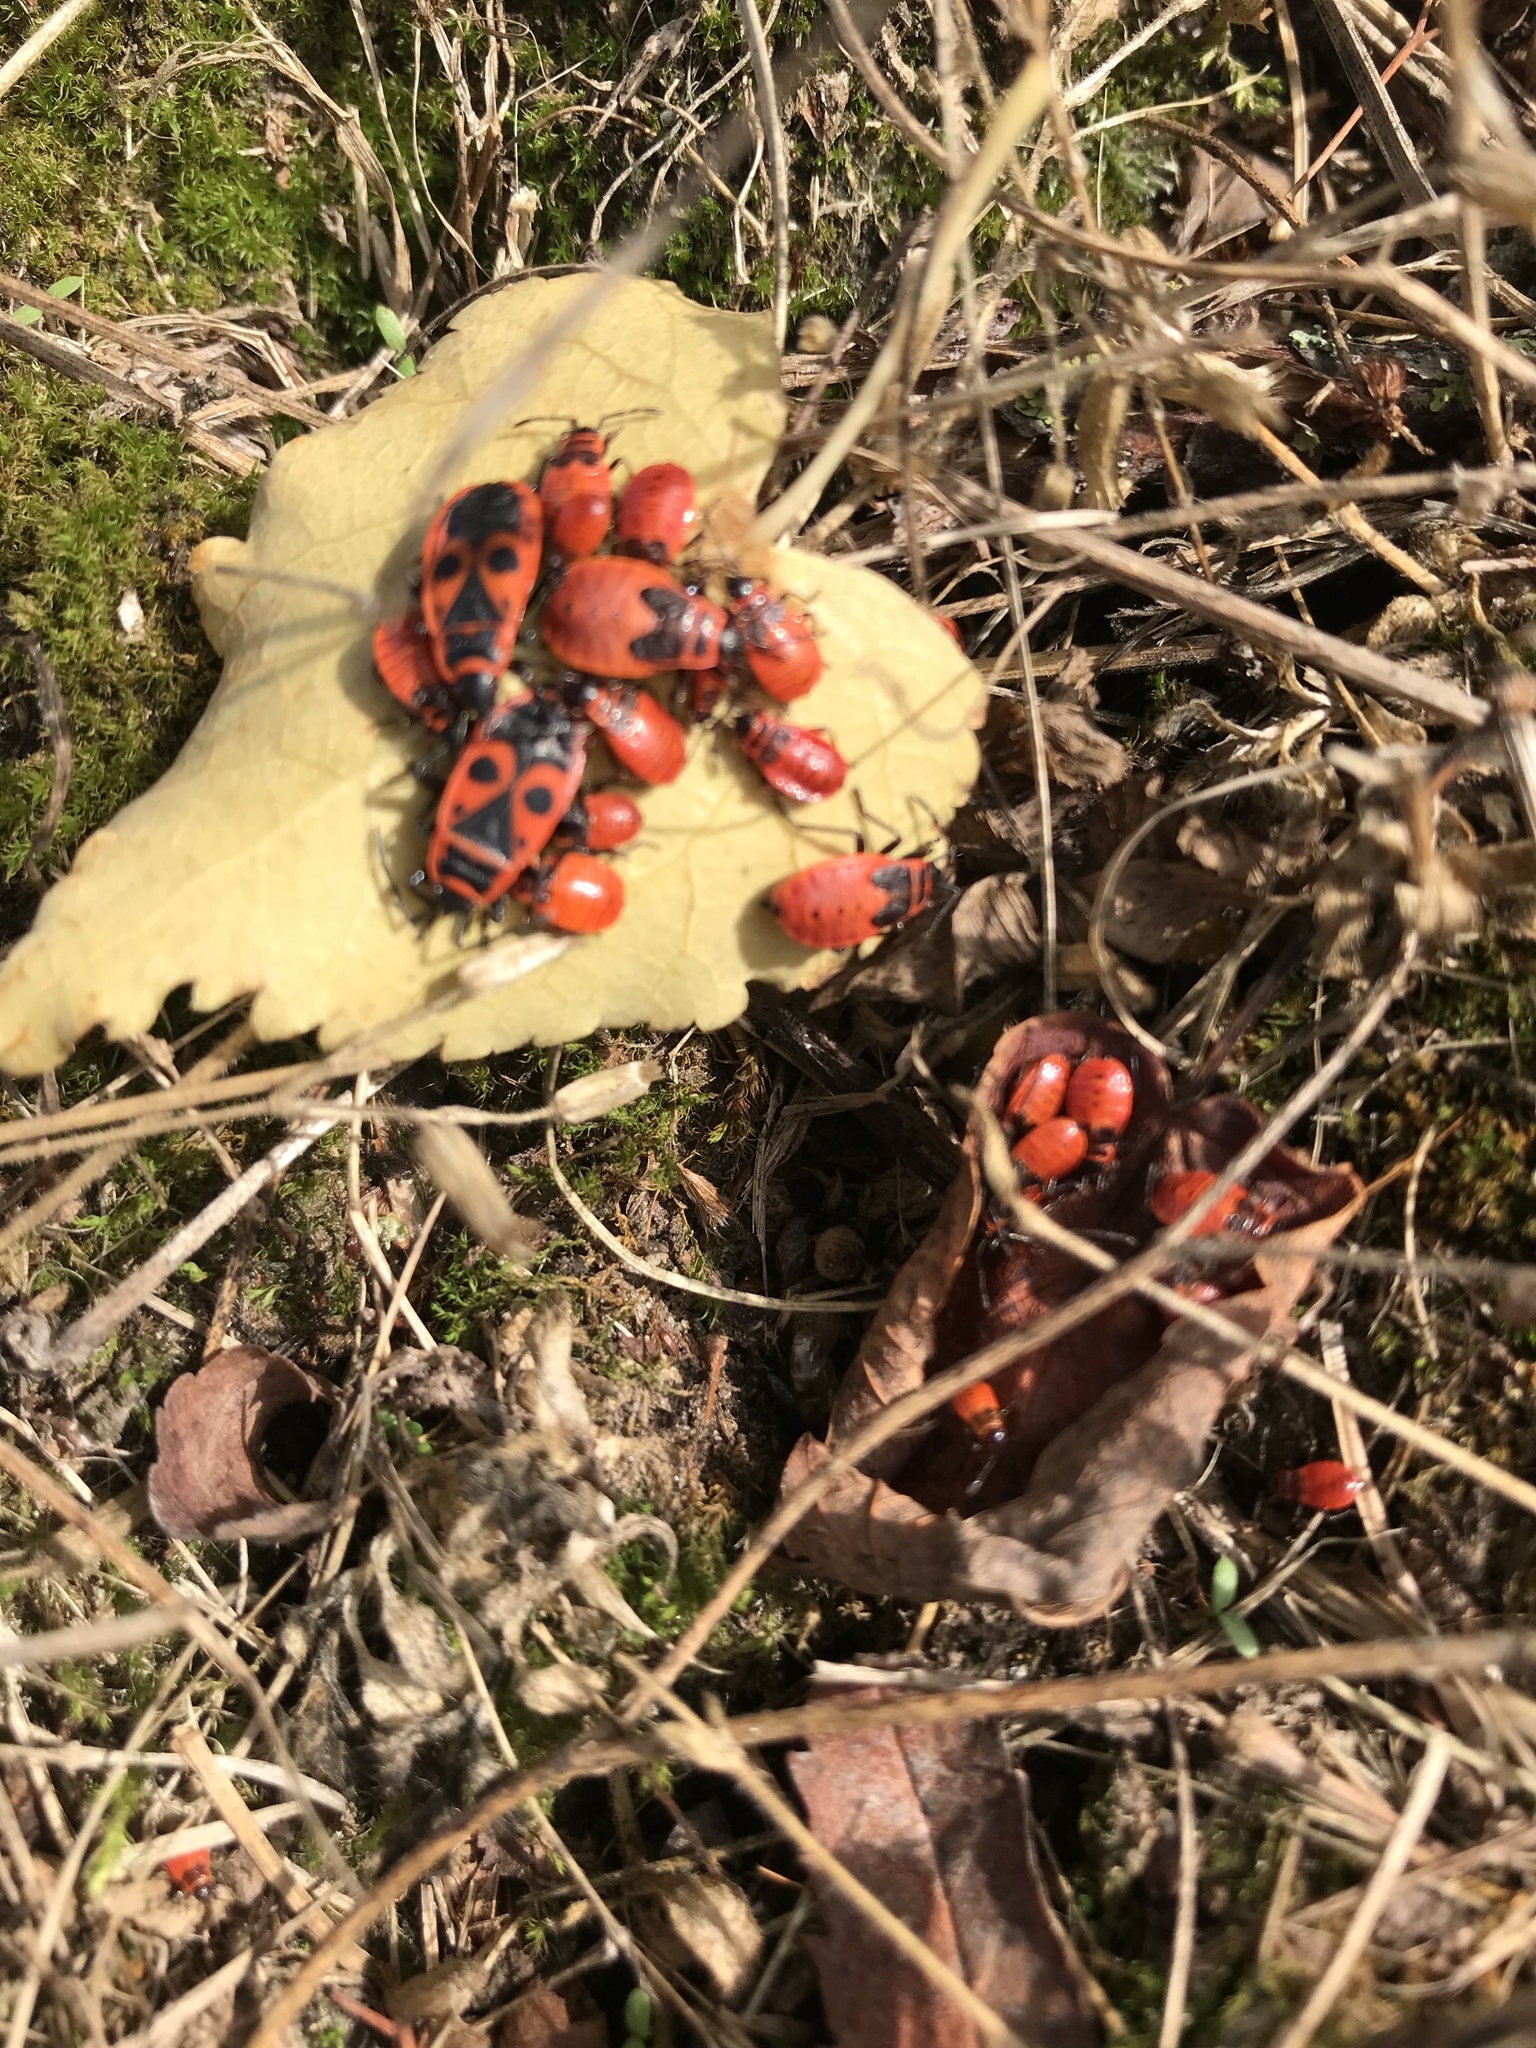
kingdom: Animalia
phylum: Arthropoda
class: Insecta
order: Hemiptera
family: Pyrrhocoridae
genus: Pyrrhocoris
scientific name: Pyrrhocoris apterus
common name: Firebug
